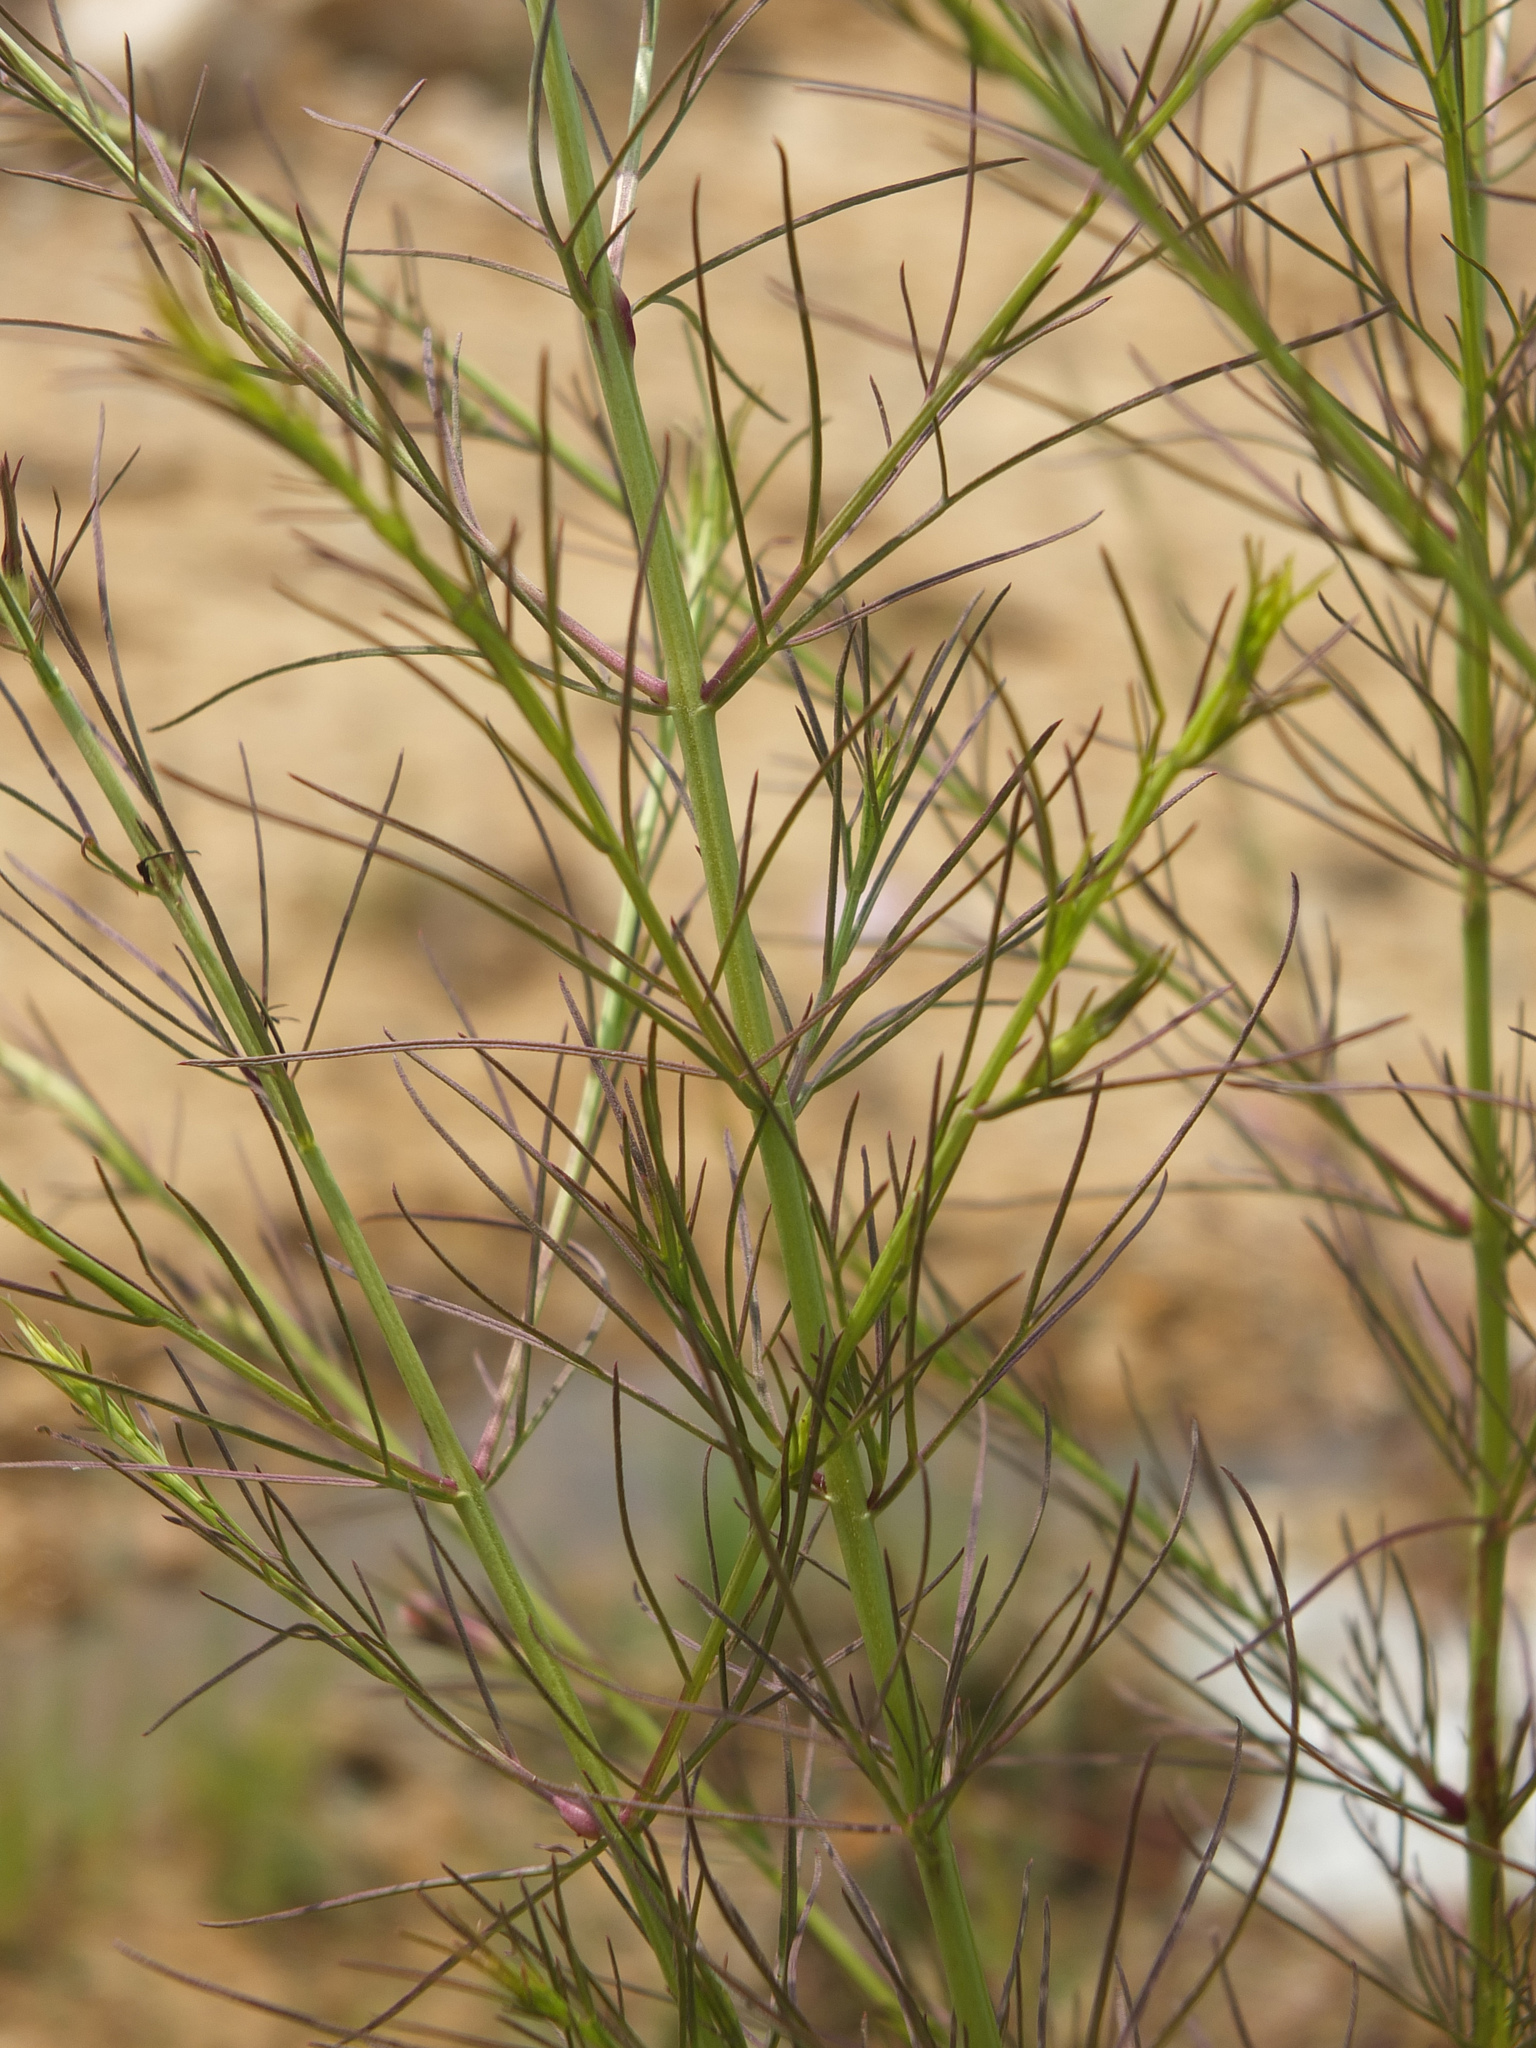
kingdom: Plantae
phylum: Tracheophyta
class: Magnoliopsida
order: Lamiales
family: Orobanchaceae
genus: Parasopubia
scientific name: Parasopubia delphiniifolia
